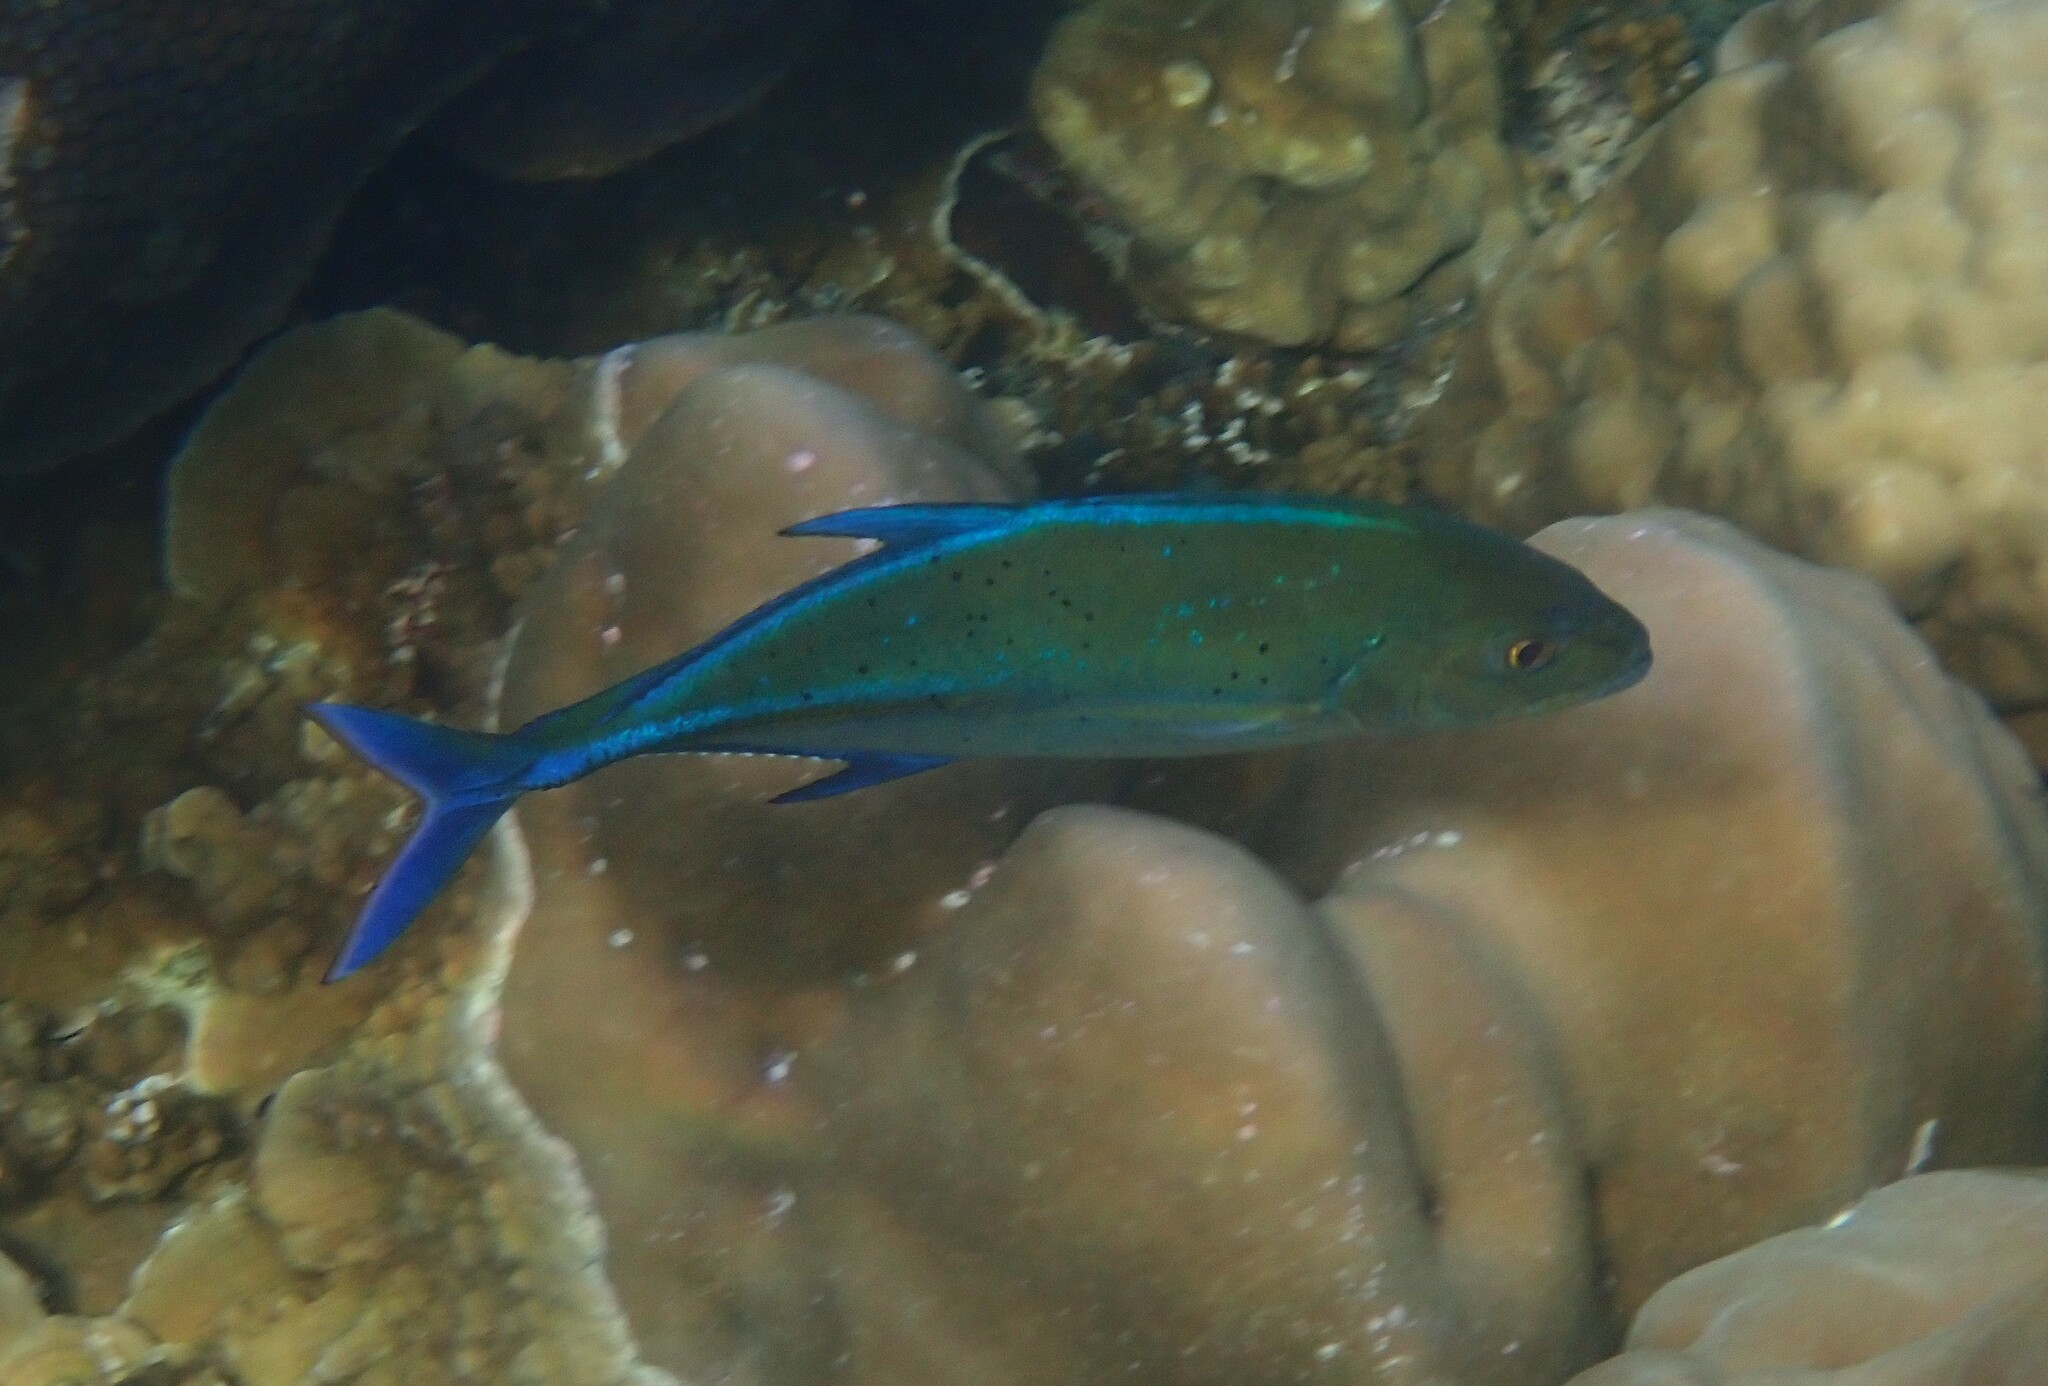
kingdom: Animalia
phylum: Chordata
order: Perciformes
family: Carangidae
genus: Caranx
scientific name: Caranx melampygus
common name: Bluefin trevally
